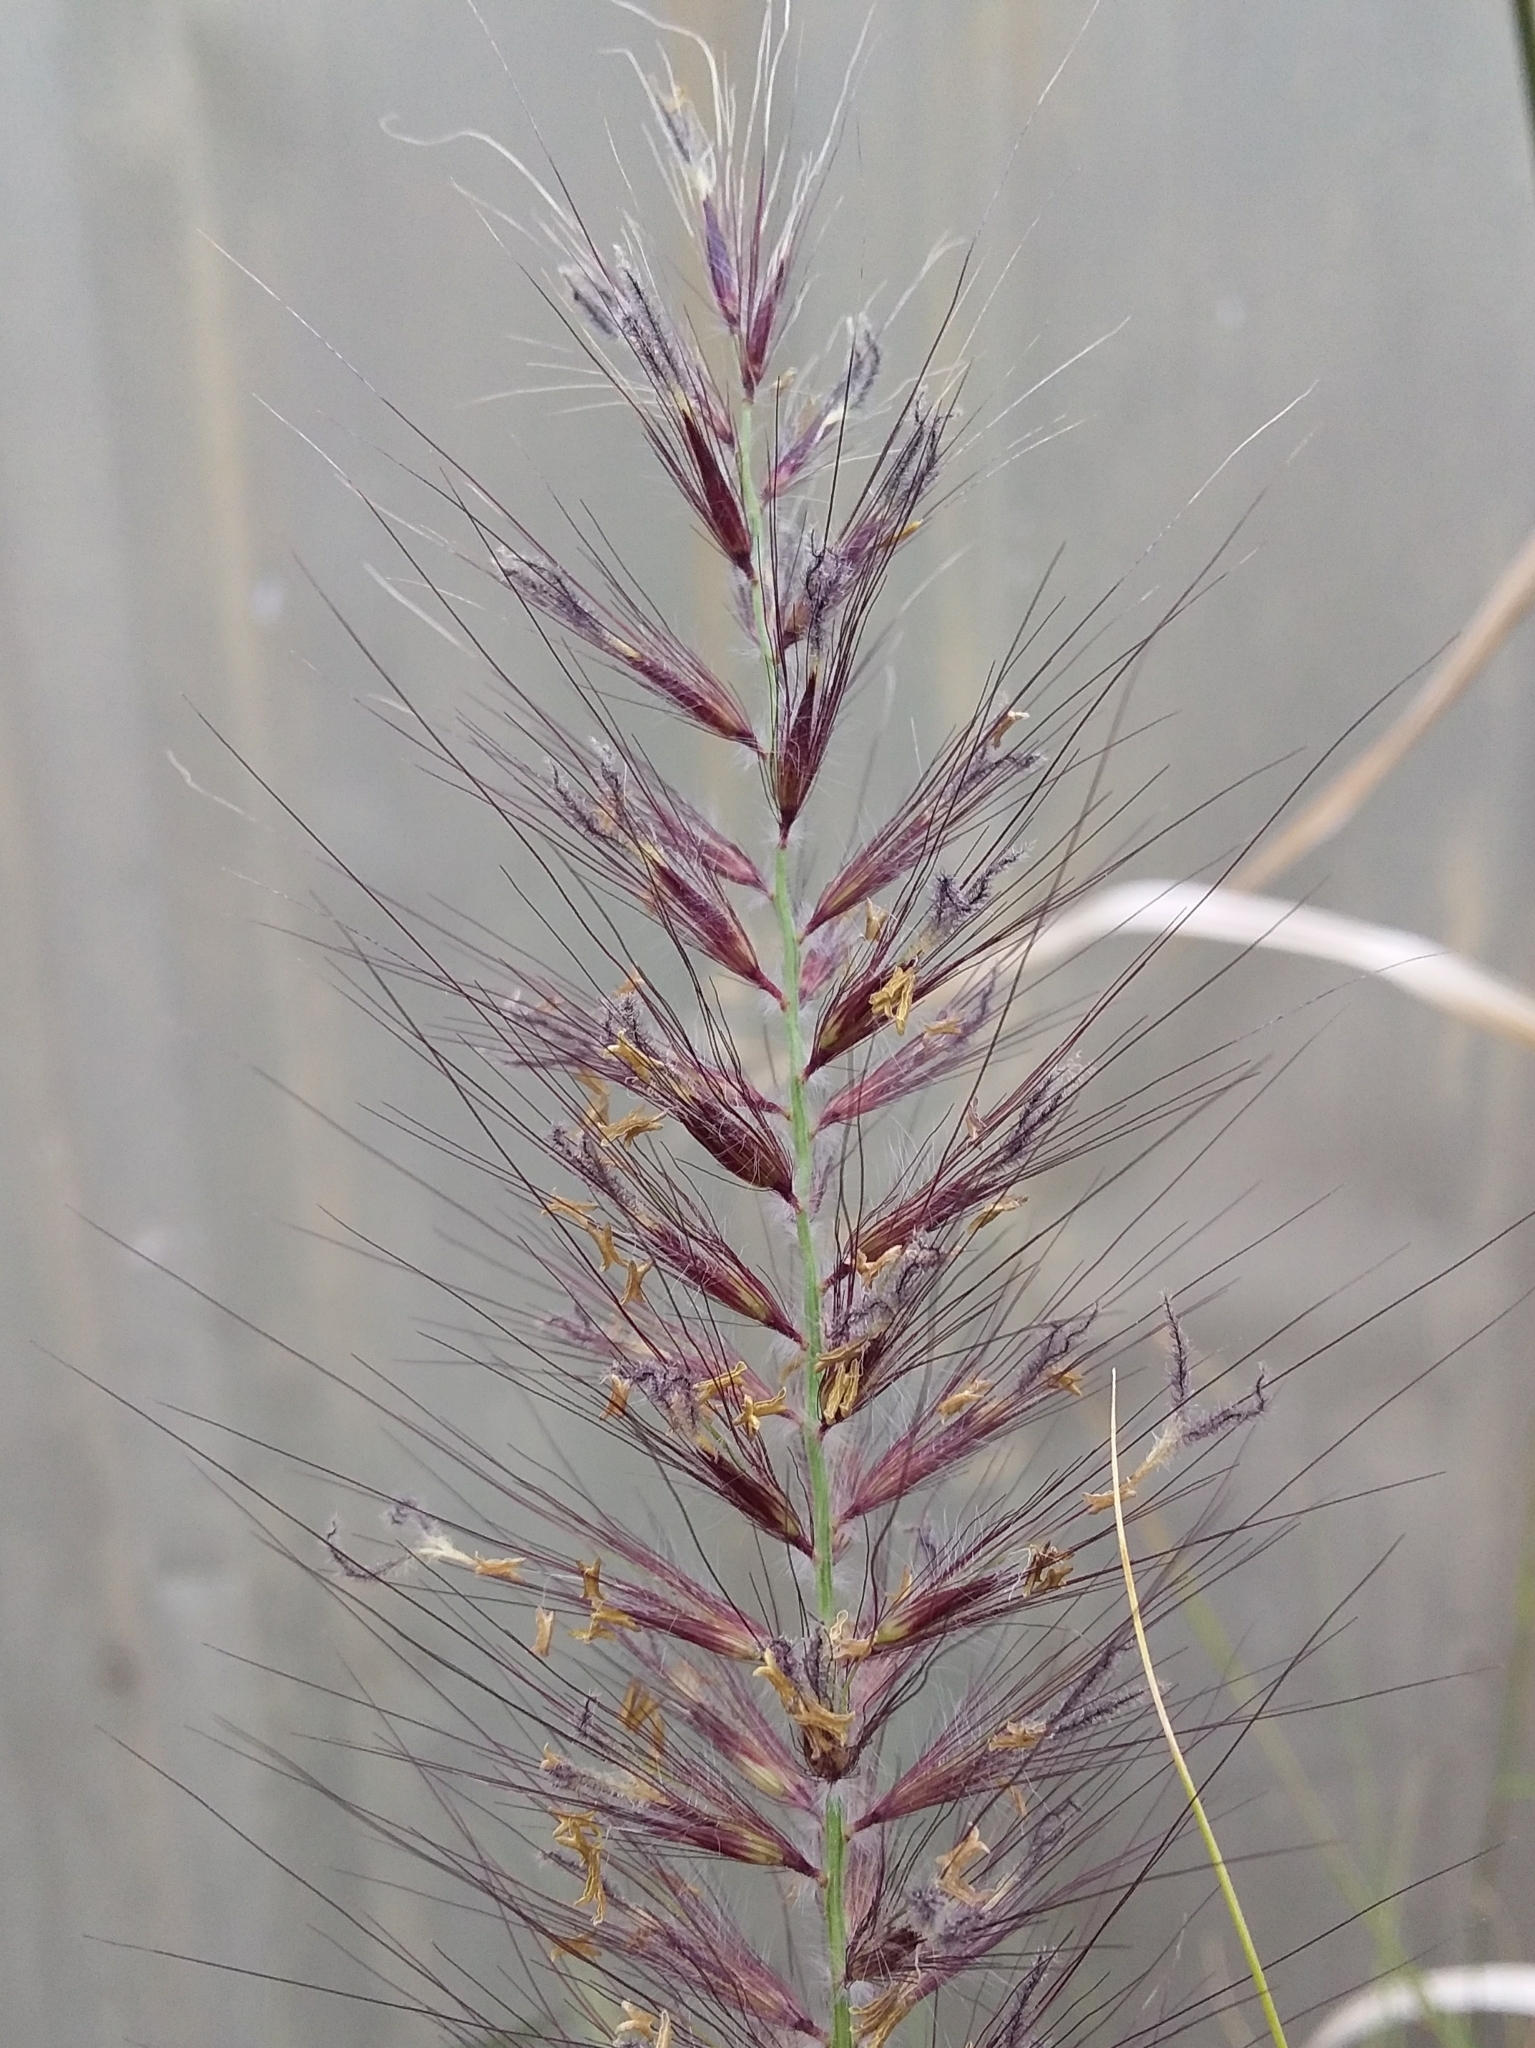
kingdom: Plantae
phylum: Tracheophyta
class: Liliopsida
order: Poales
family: Poaceae
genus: Cenchrus
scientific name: Cenchrus setaceus
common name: Crimson fountaingrass
